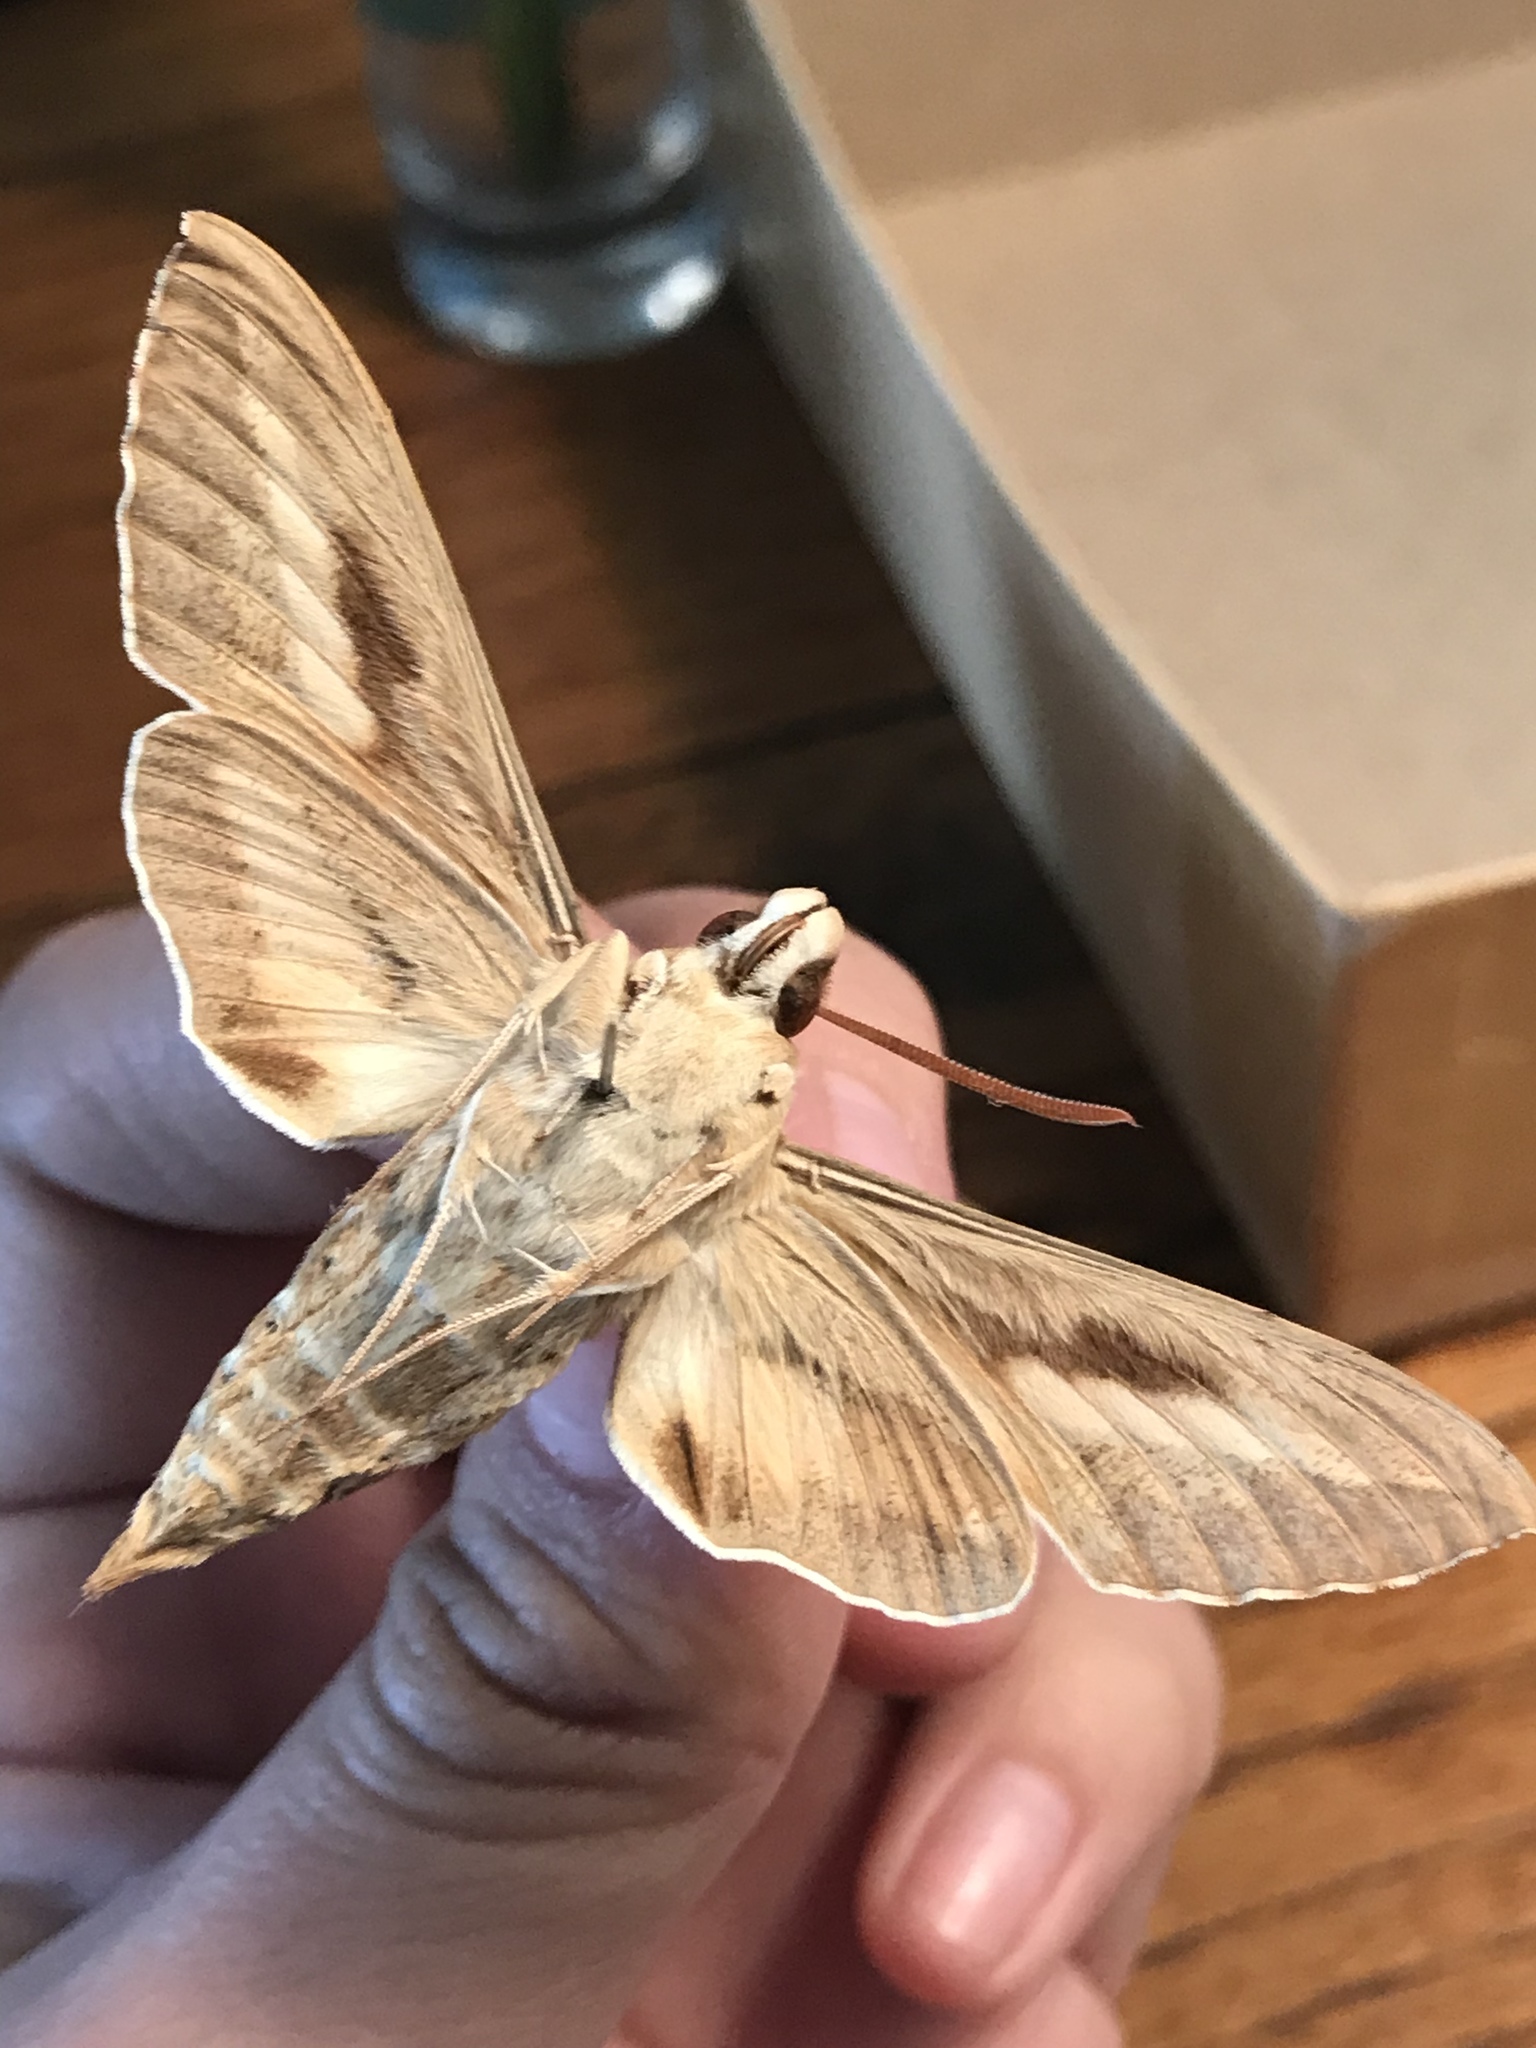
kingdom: Animalia
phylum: Arthropoda
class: Insecta
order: Lepidoptera
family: Sphingidae
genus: Hyles
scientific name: Hyles lineata
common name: White-lined sphinx
